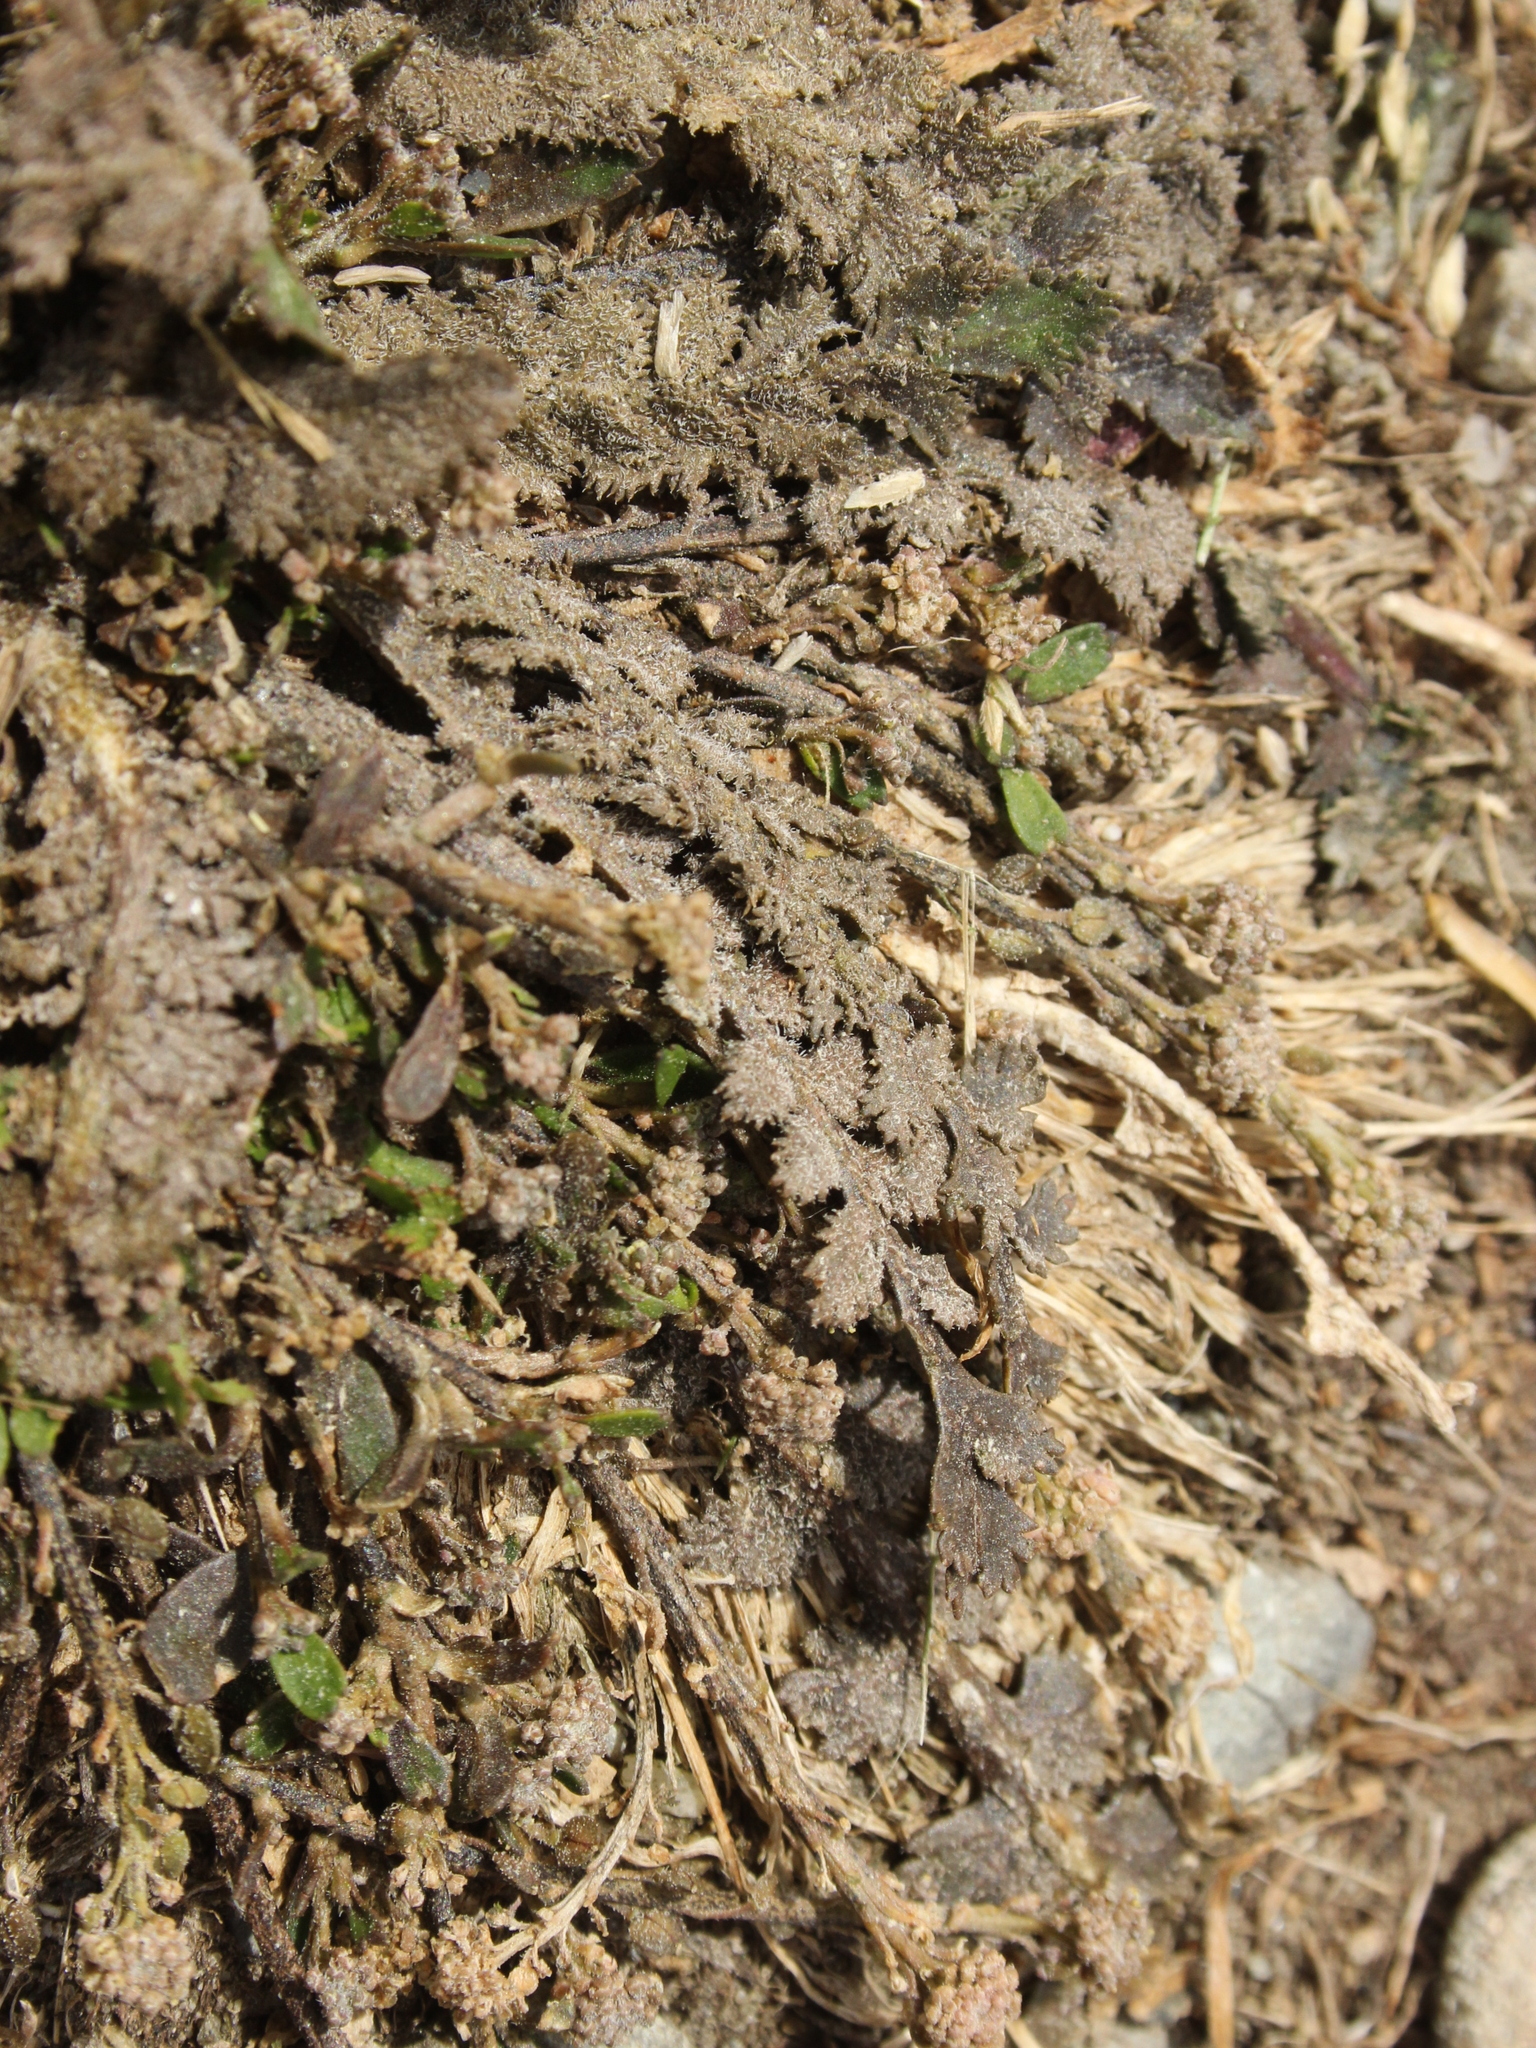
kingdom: Plantae
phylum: Tracheophyta
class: Magnoliopsida
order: Brassicales
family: Brassicaceae
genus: Lepidium
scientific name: Lepidium tenuicaule
